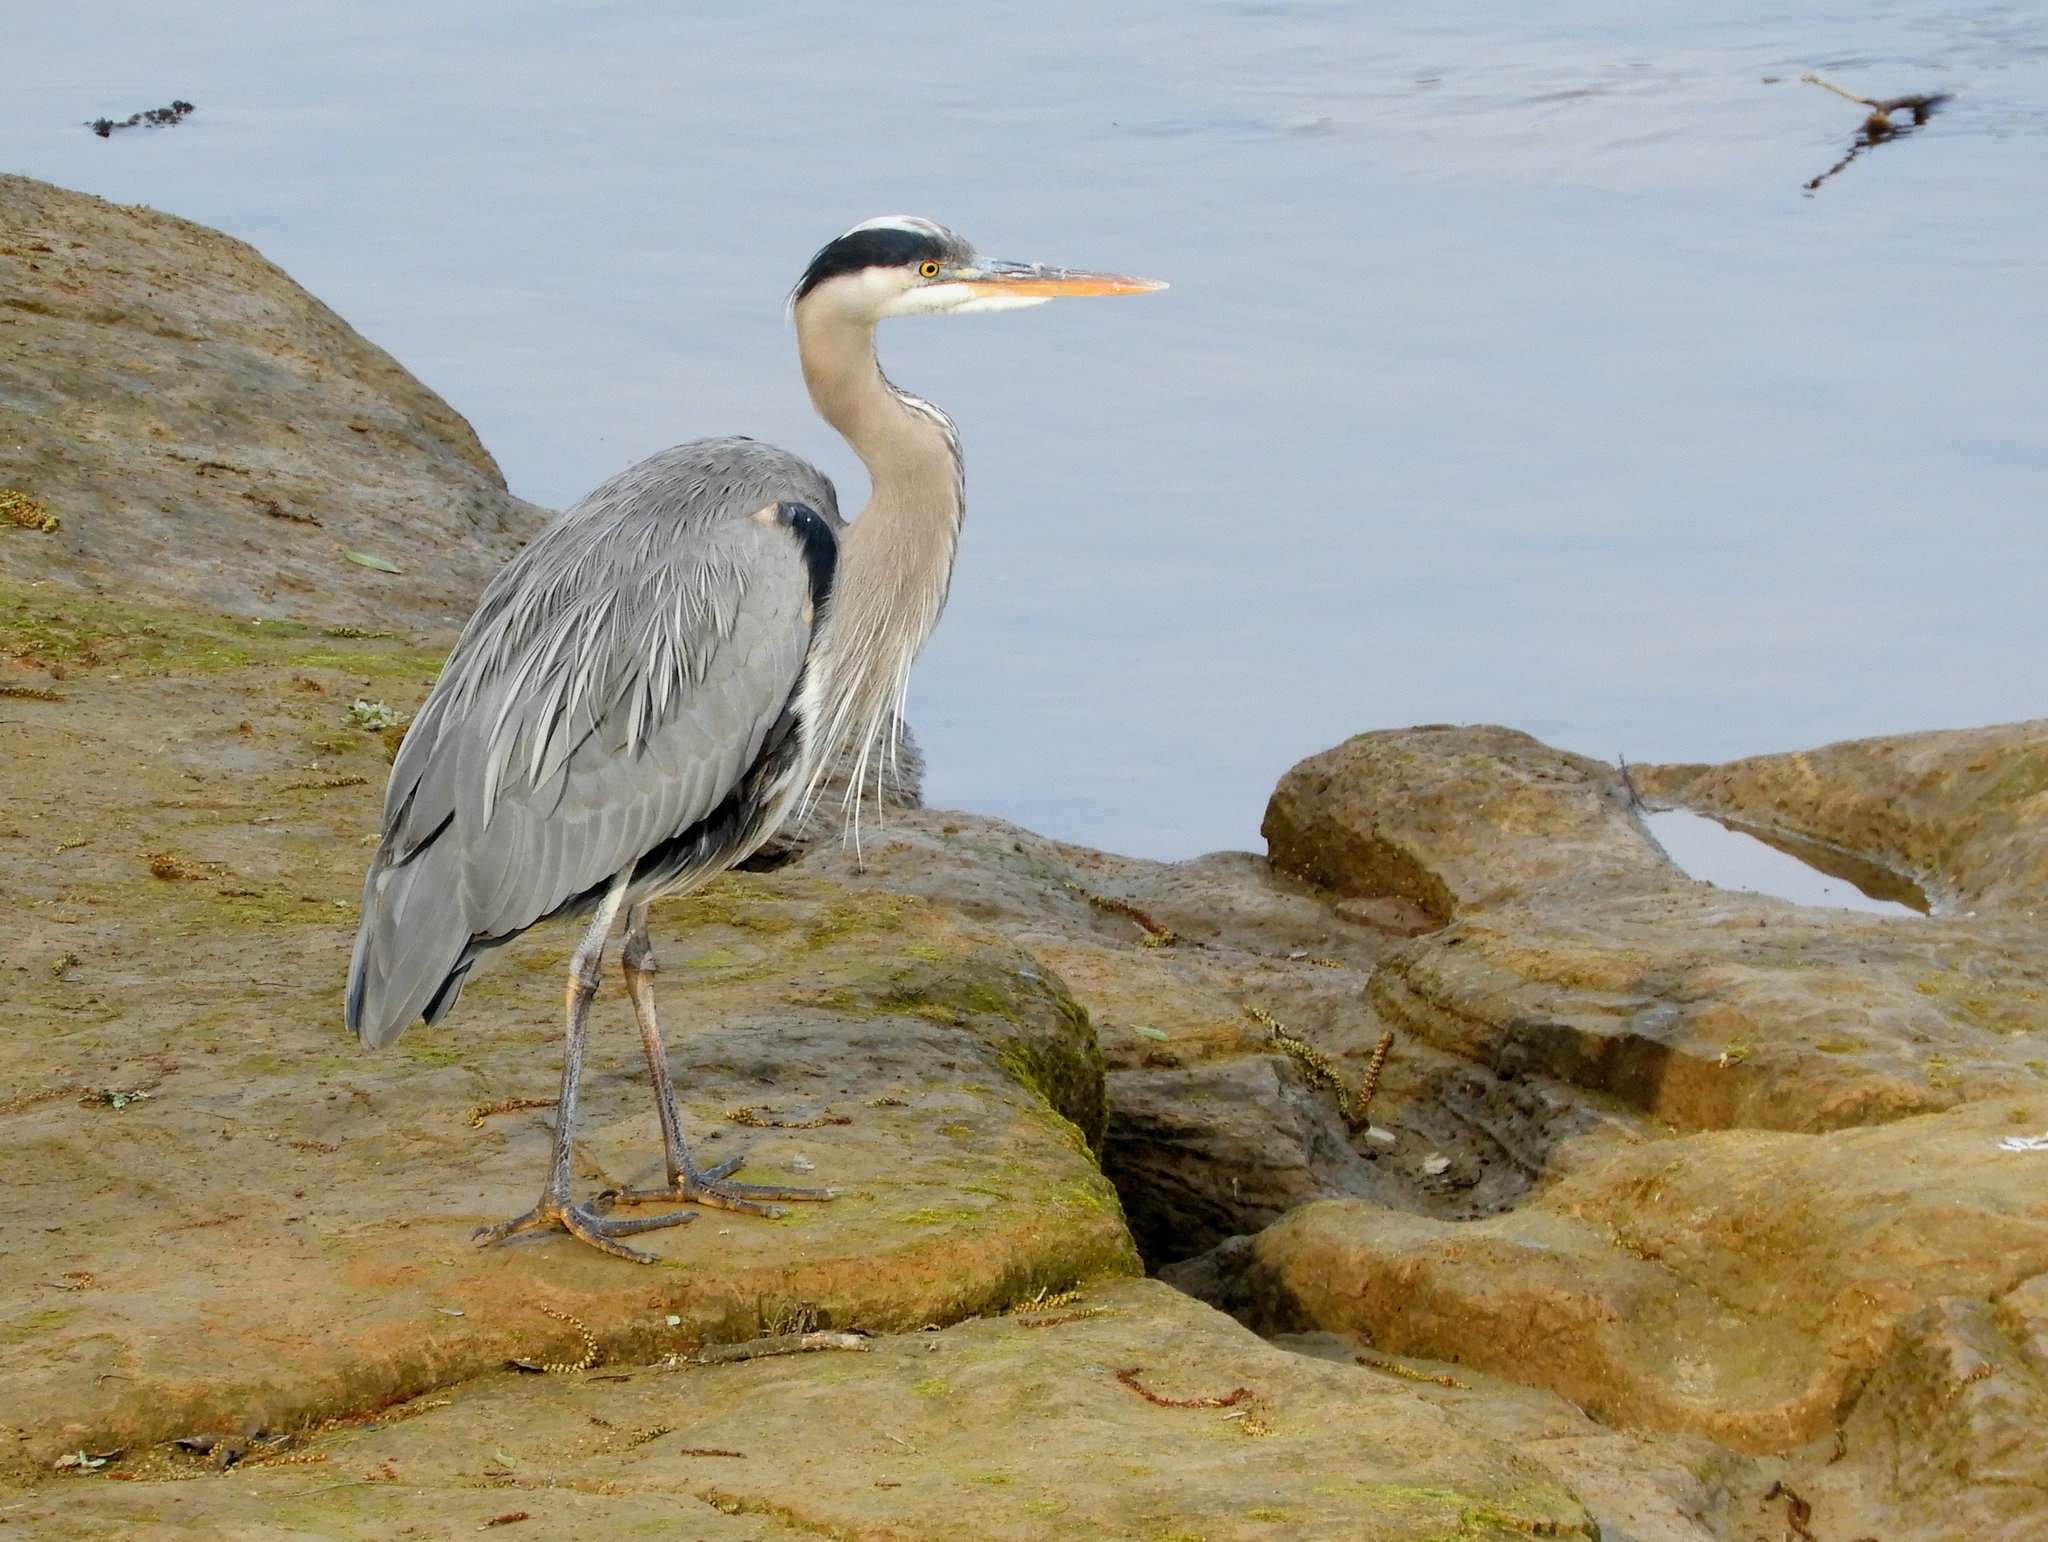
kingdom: Animalia
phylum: Chordata
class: Aves
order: Pelecaniformes
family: Ardeidae
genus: Ardea
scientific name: Ardea herodias
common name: Great blue heron
